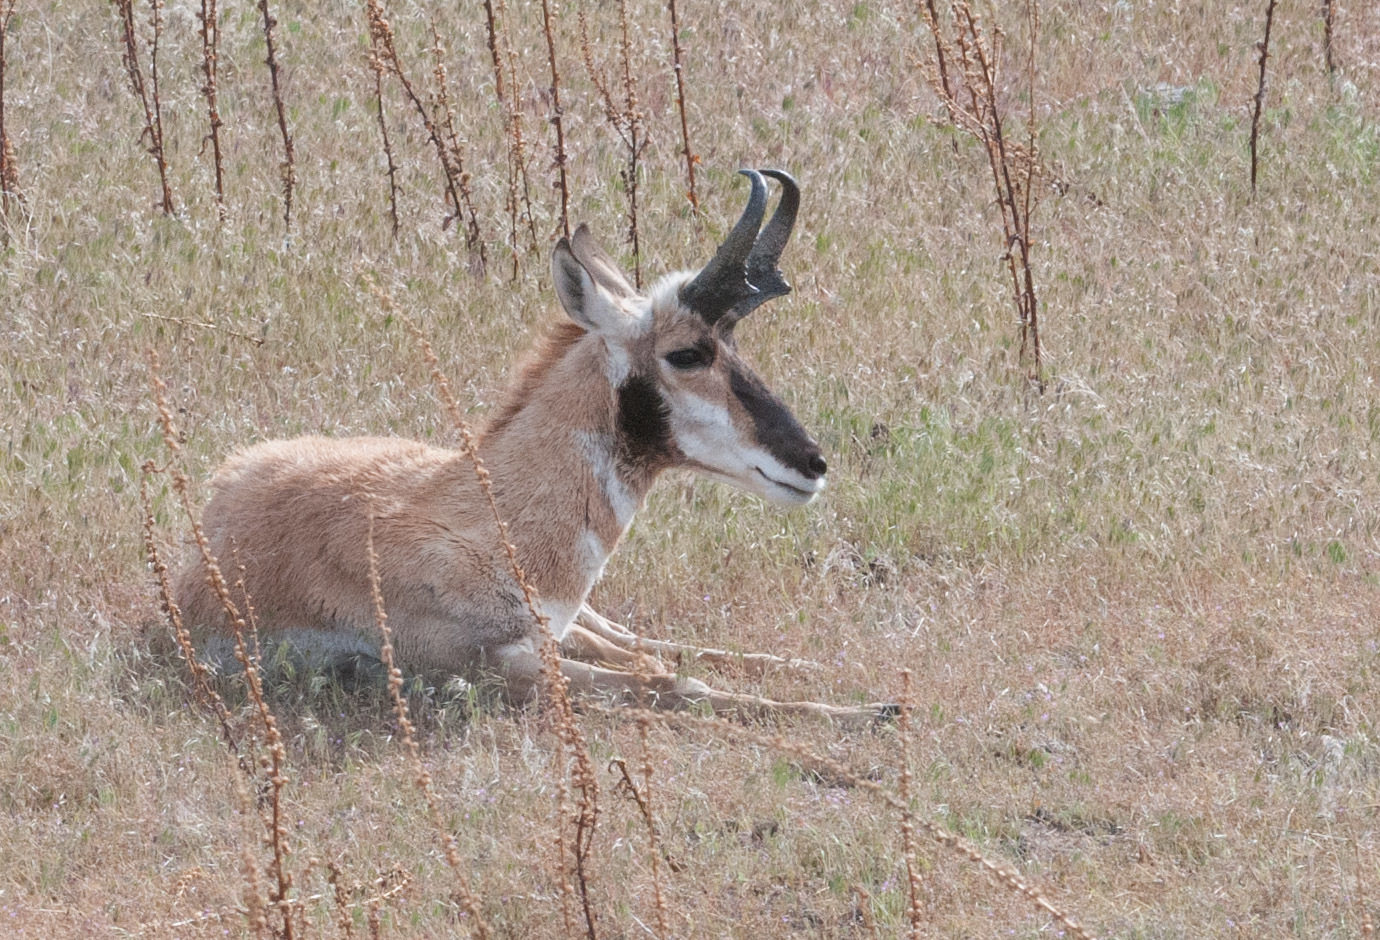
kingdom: Animalia
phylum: Chordata
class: Mammalia
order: Artiodactyla
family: Antilocapridae
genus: Antilocapra
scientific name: Antilocapra americana
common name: Pronghorn
